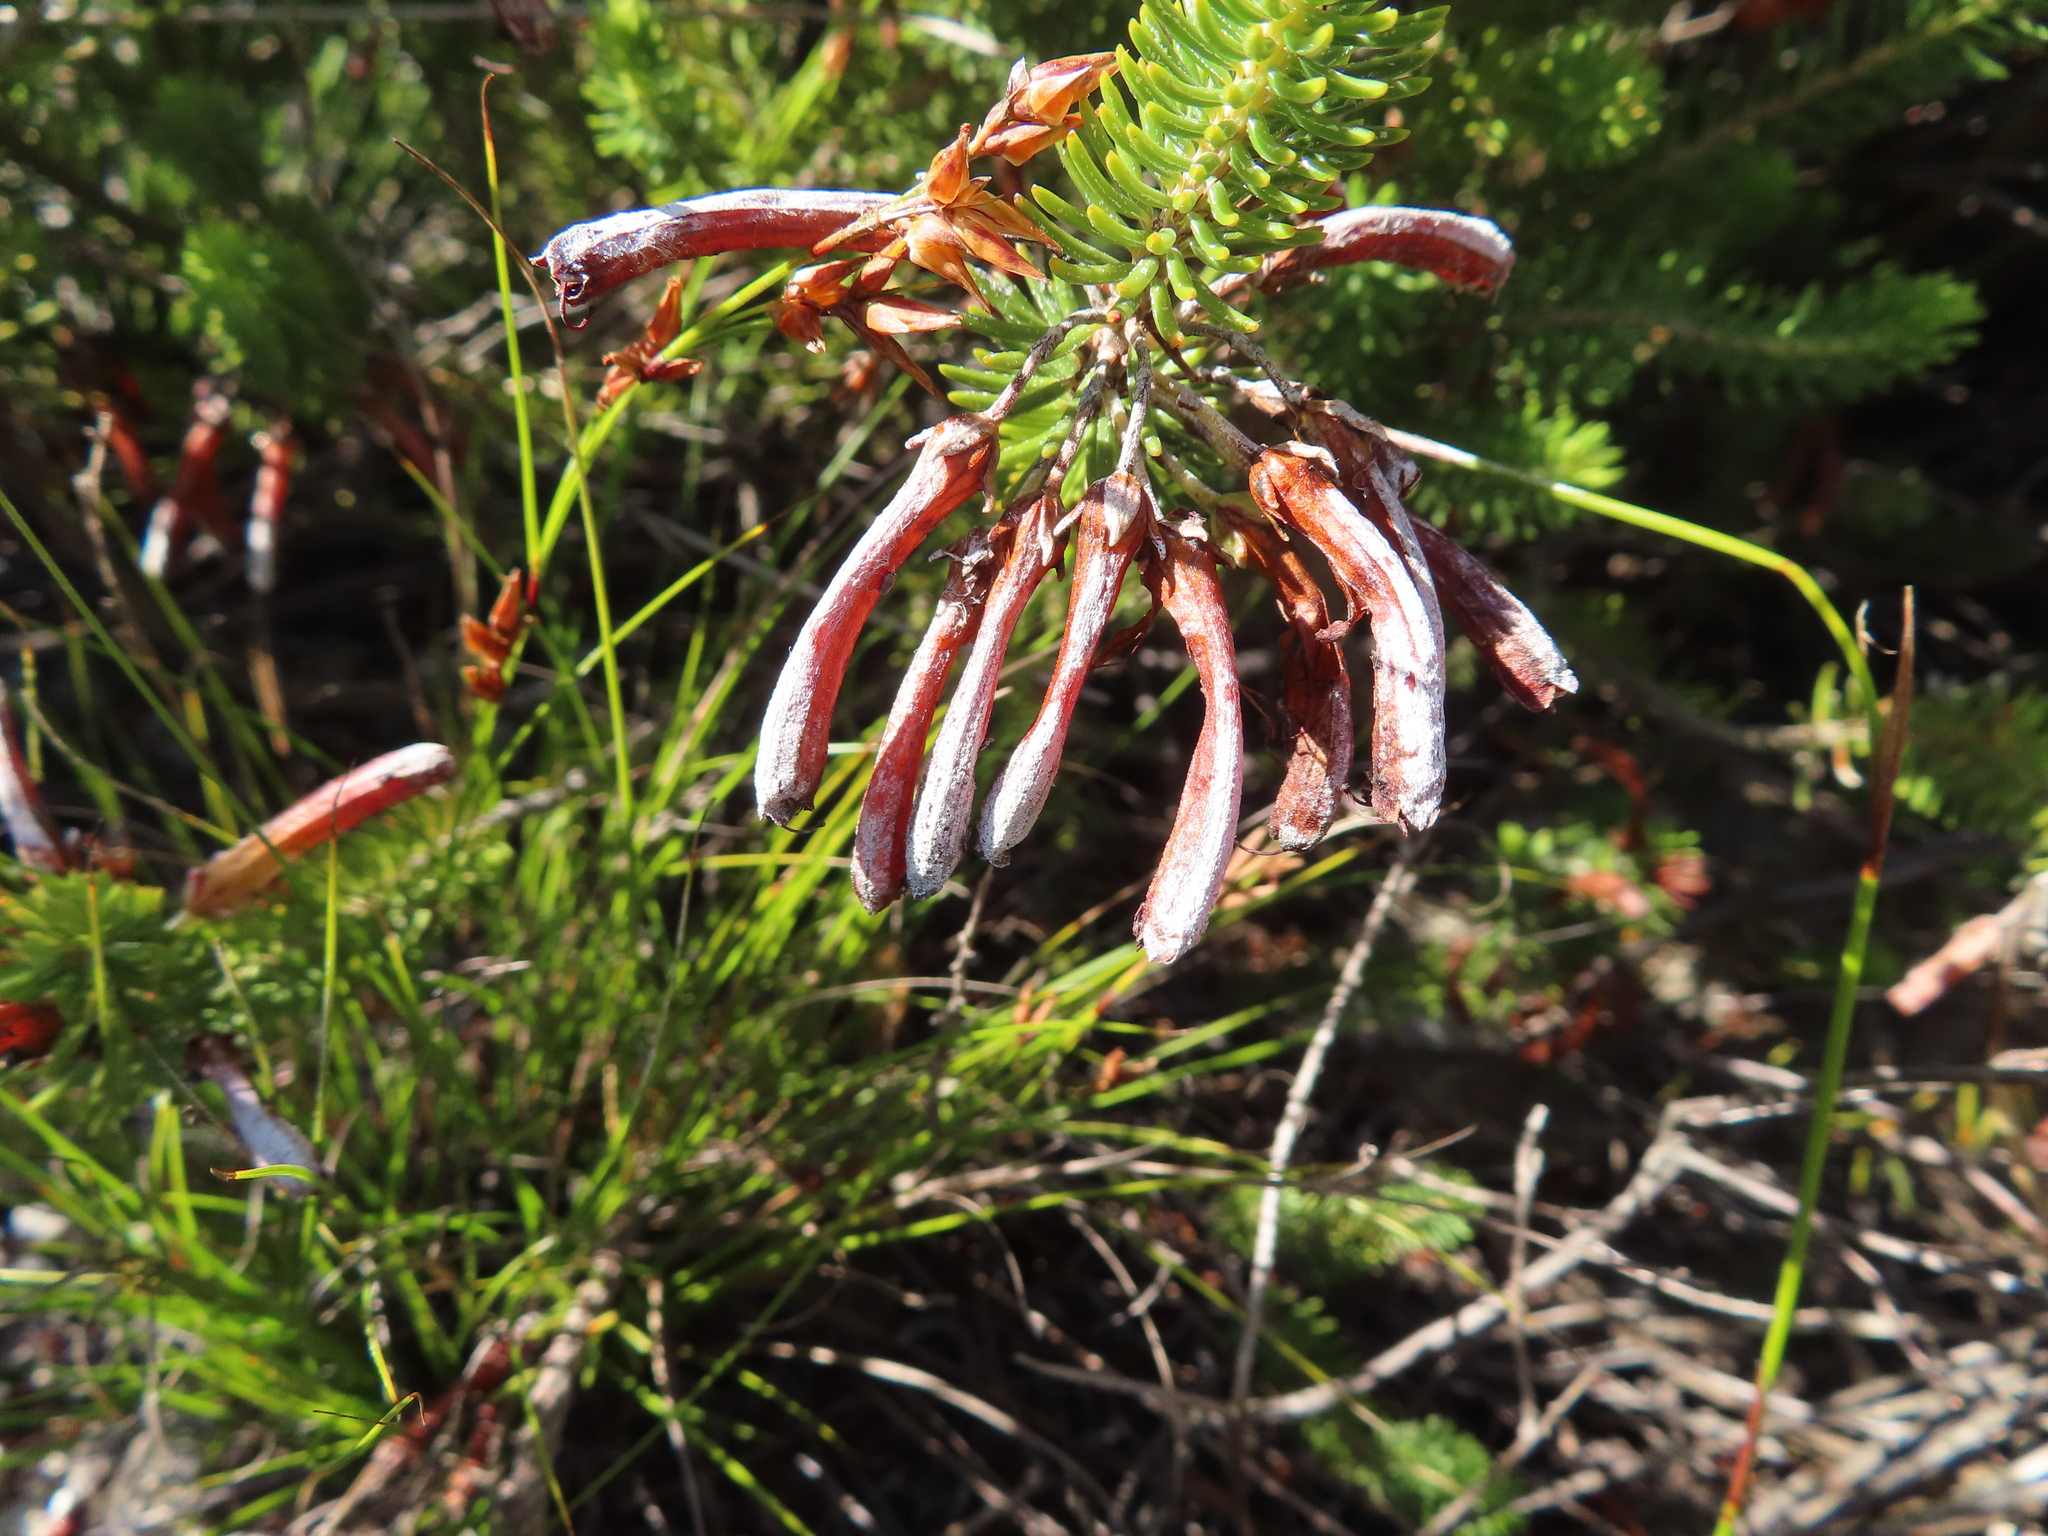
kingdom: Plantae
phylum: Tracheophyta
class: Magnoliopsida
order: Ericales
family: Ericaceae
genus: Erica
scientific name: Erica thomae
